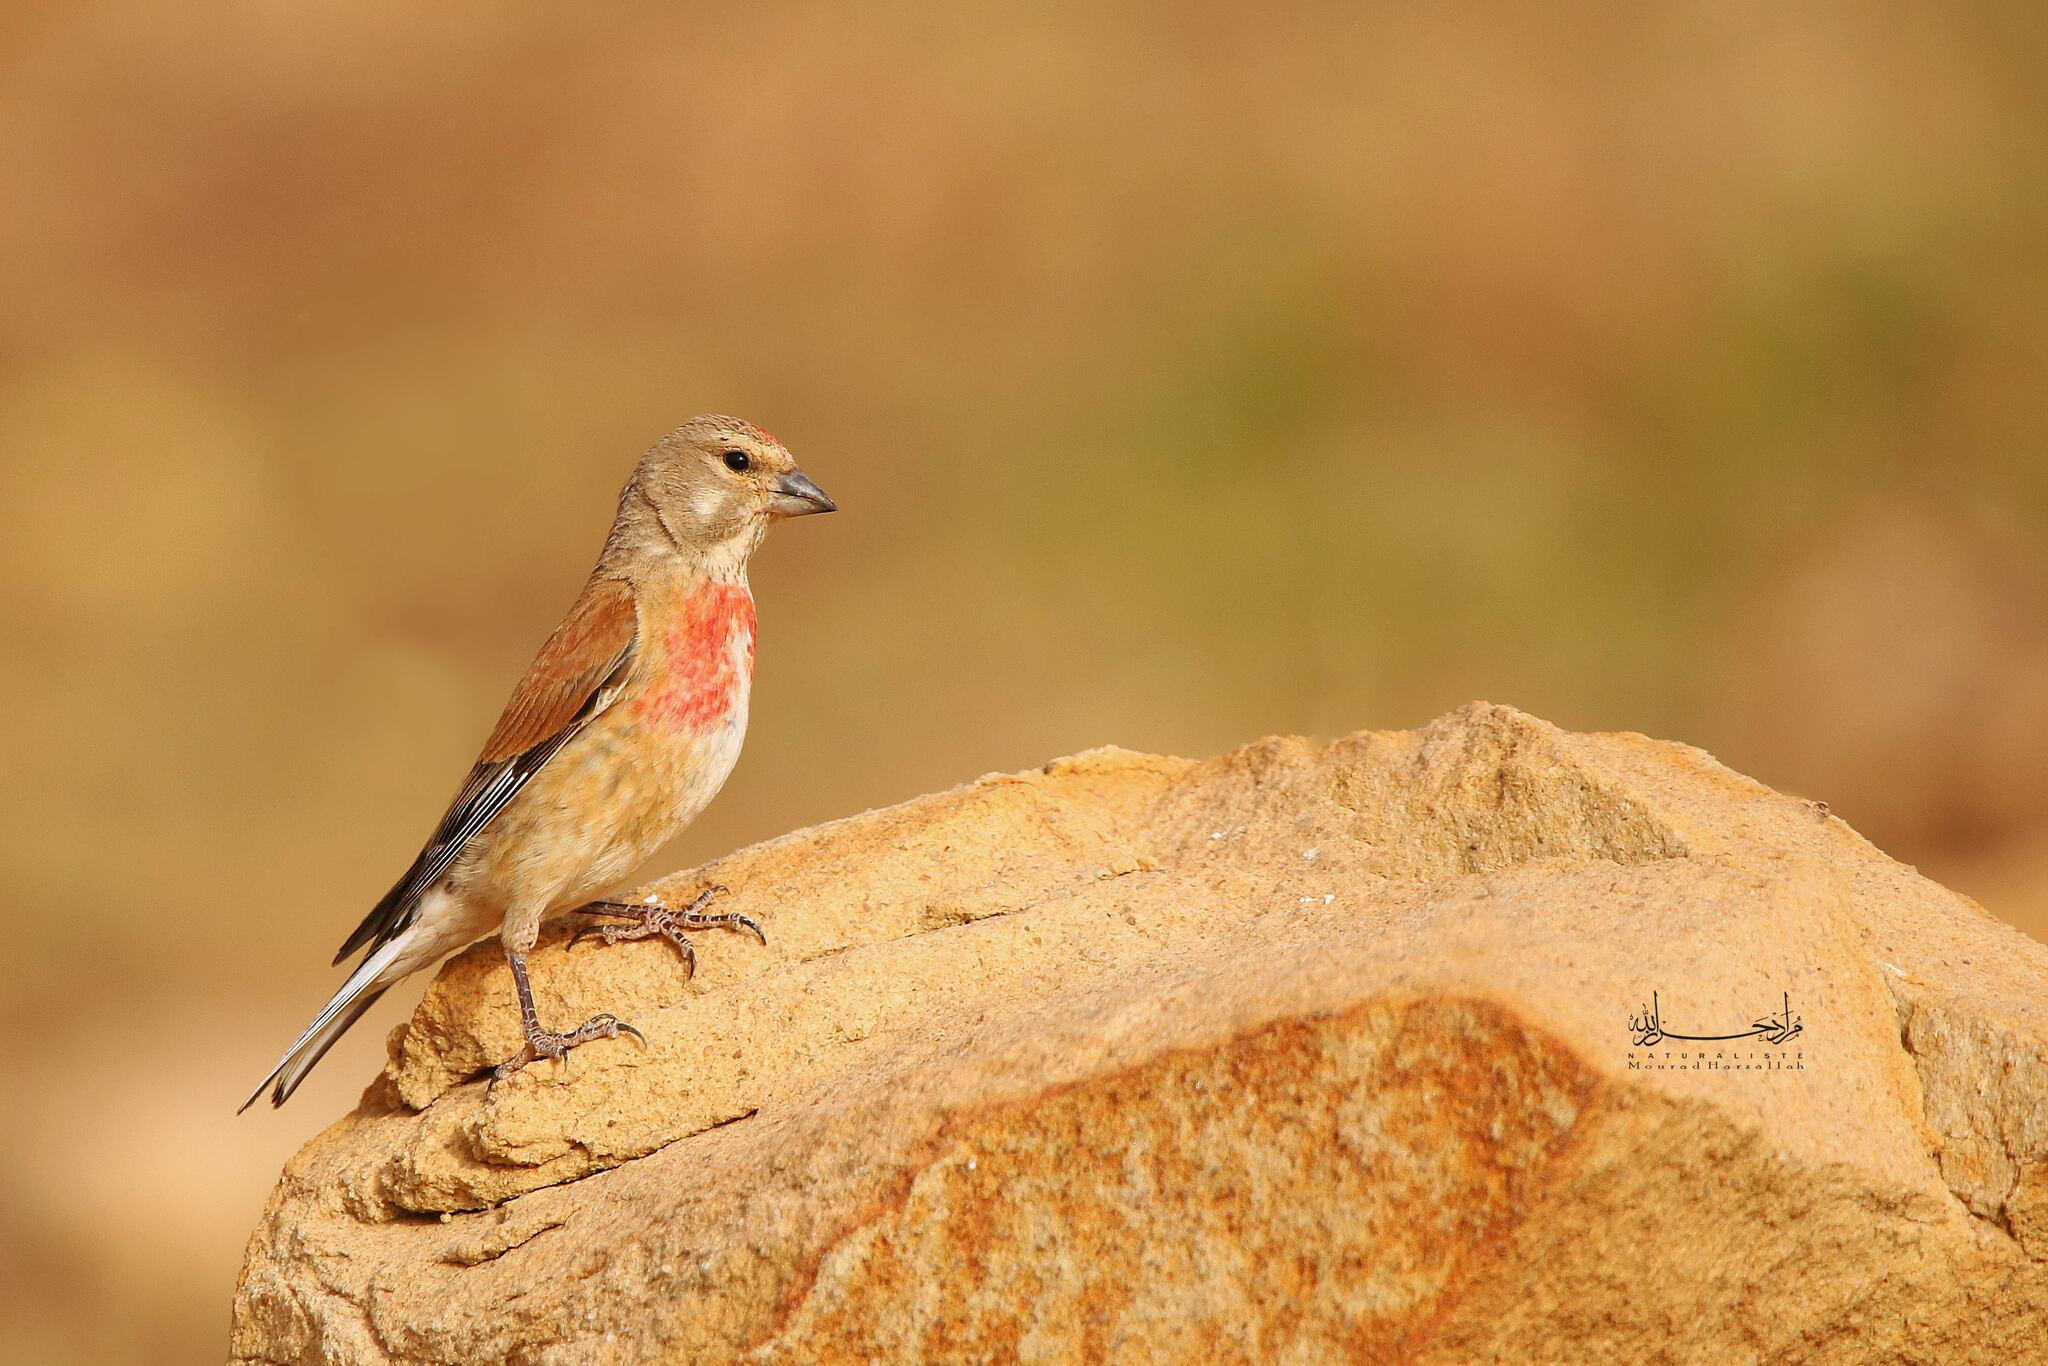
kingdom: Animalia
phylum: Chordata
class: Aves
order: Passeriformes
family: Fringillidae
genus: Linaria
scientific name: Linaria cannabina
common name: Common linnet
